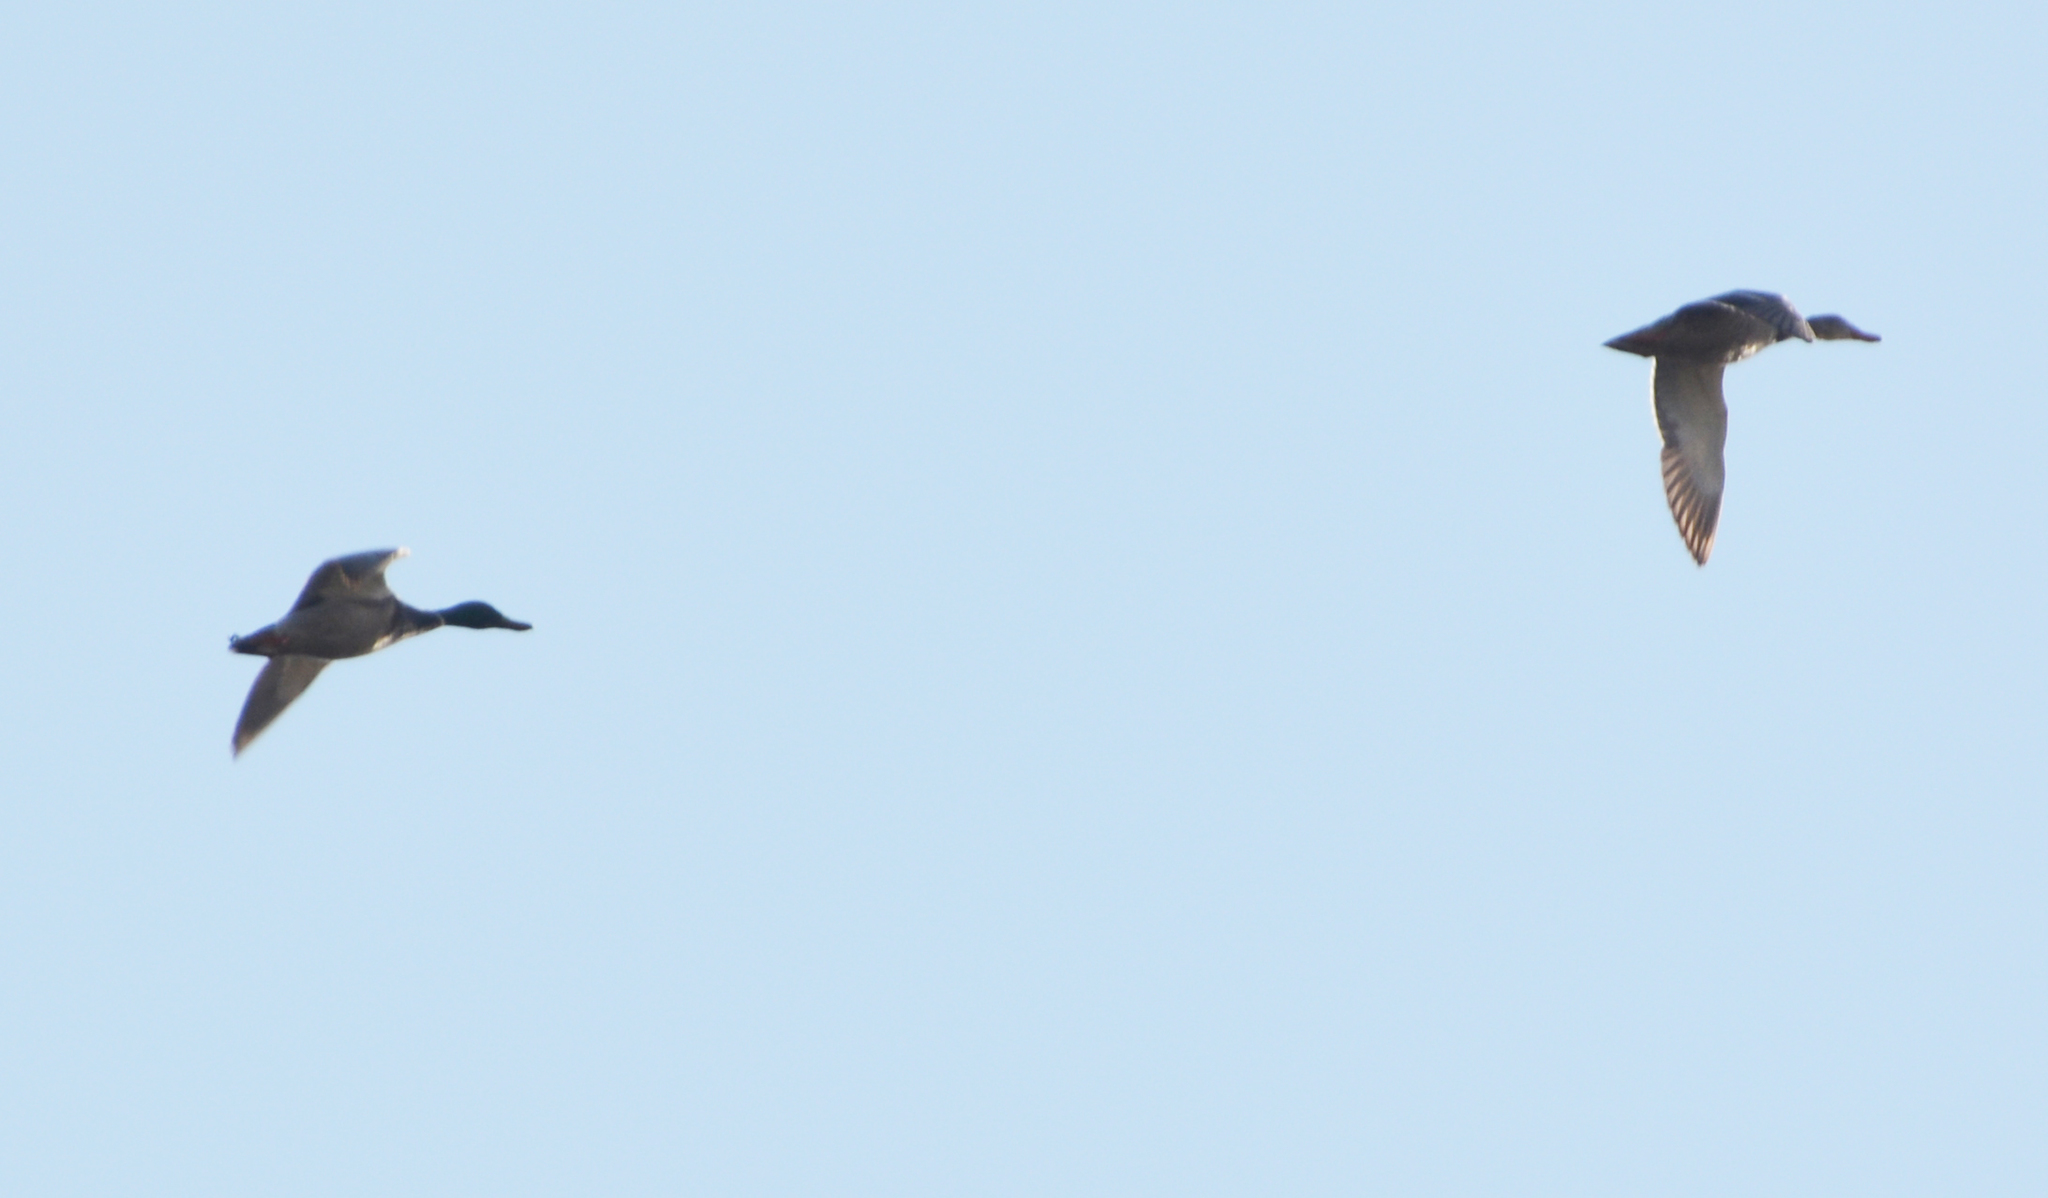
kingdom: Animalia
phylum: Chordata
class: Aves
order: Anseriformes
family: Anatidae
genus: Anas
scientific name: Anas platyrhynchos
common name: Mallard
